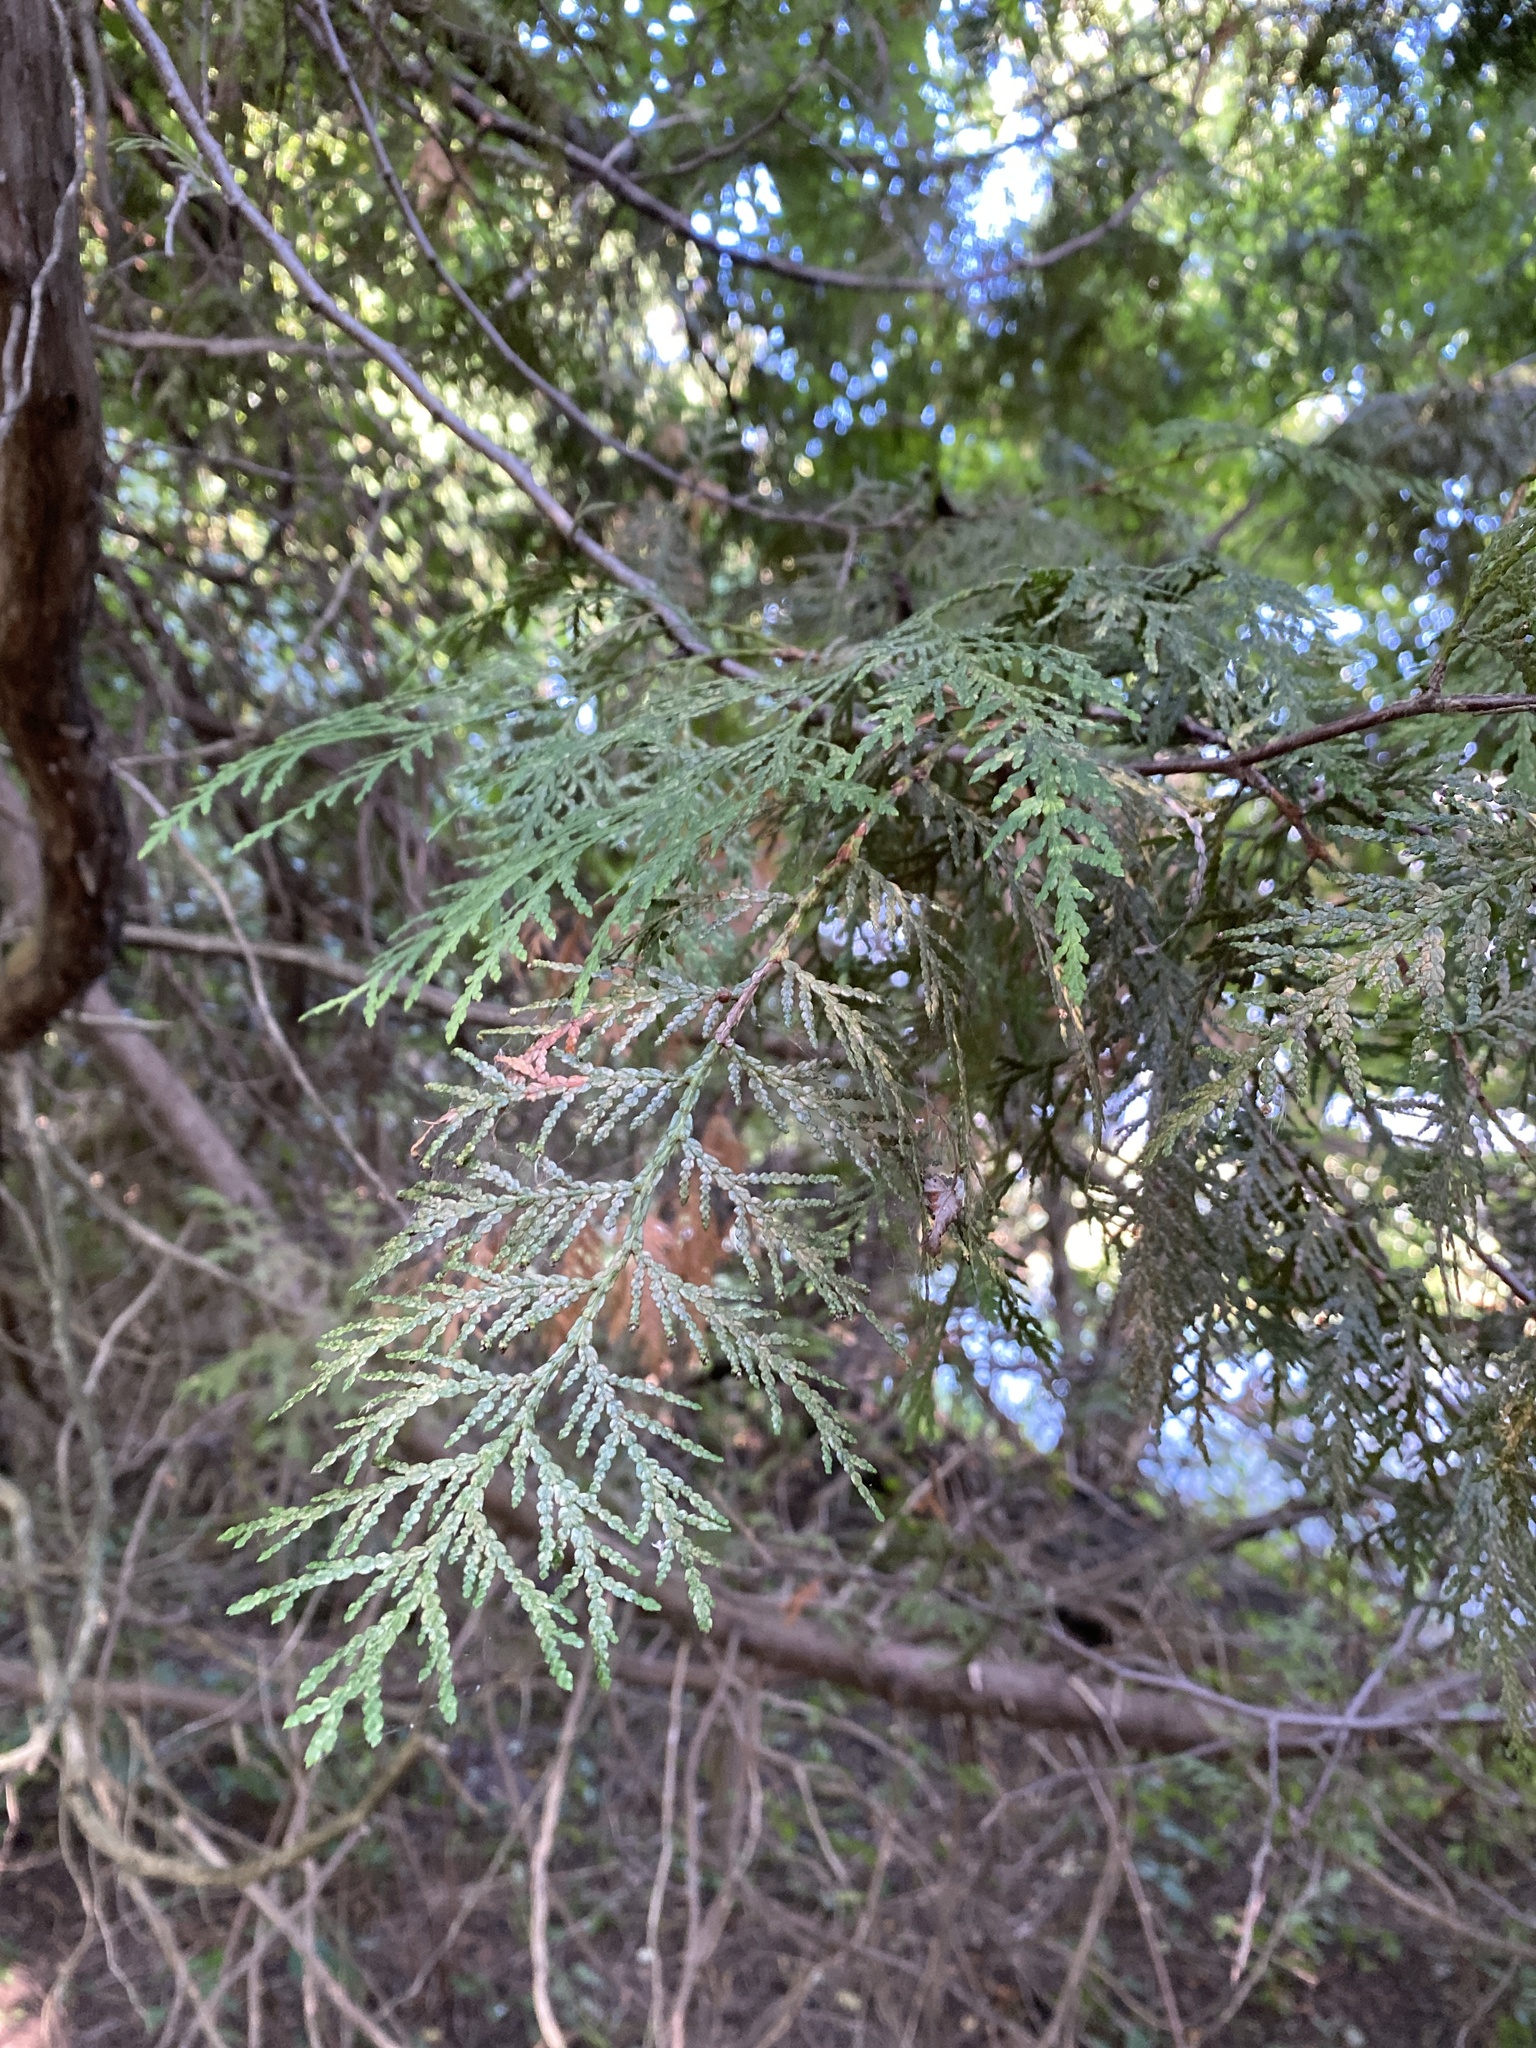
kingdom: Plantae
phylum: Tracheophyta
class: Pinopsida
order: Pinales
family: Cupressaceae
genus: Thuja
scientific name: Thuja occidentalis
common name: Northern white-cedar
